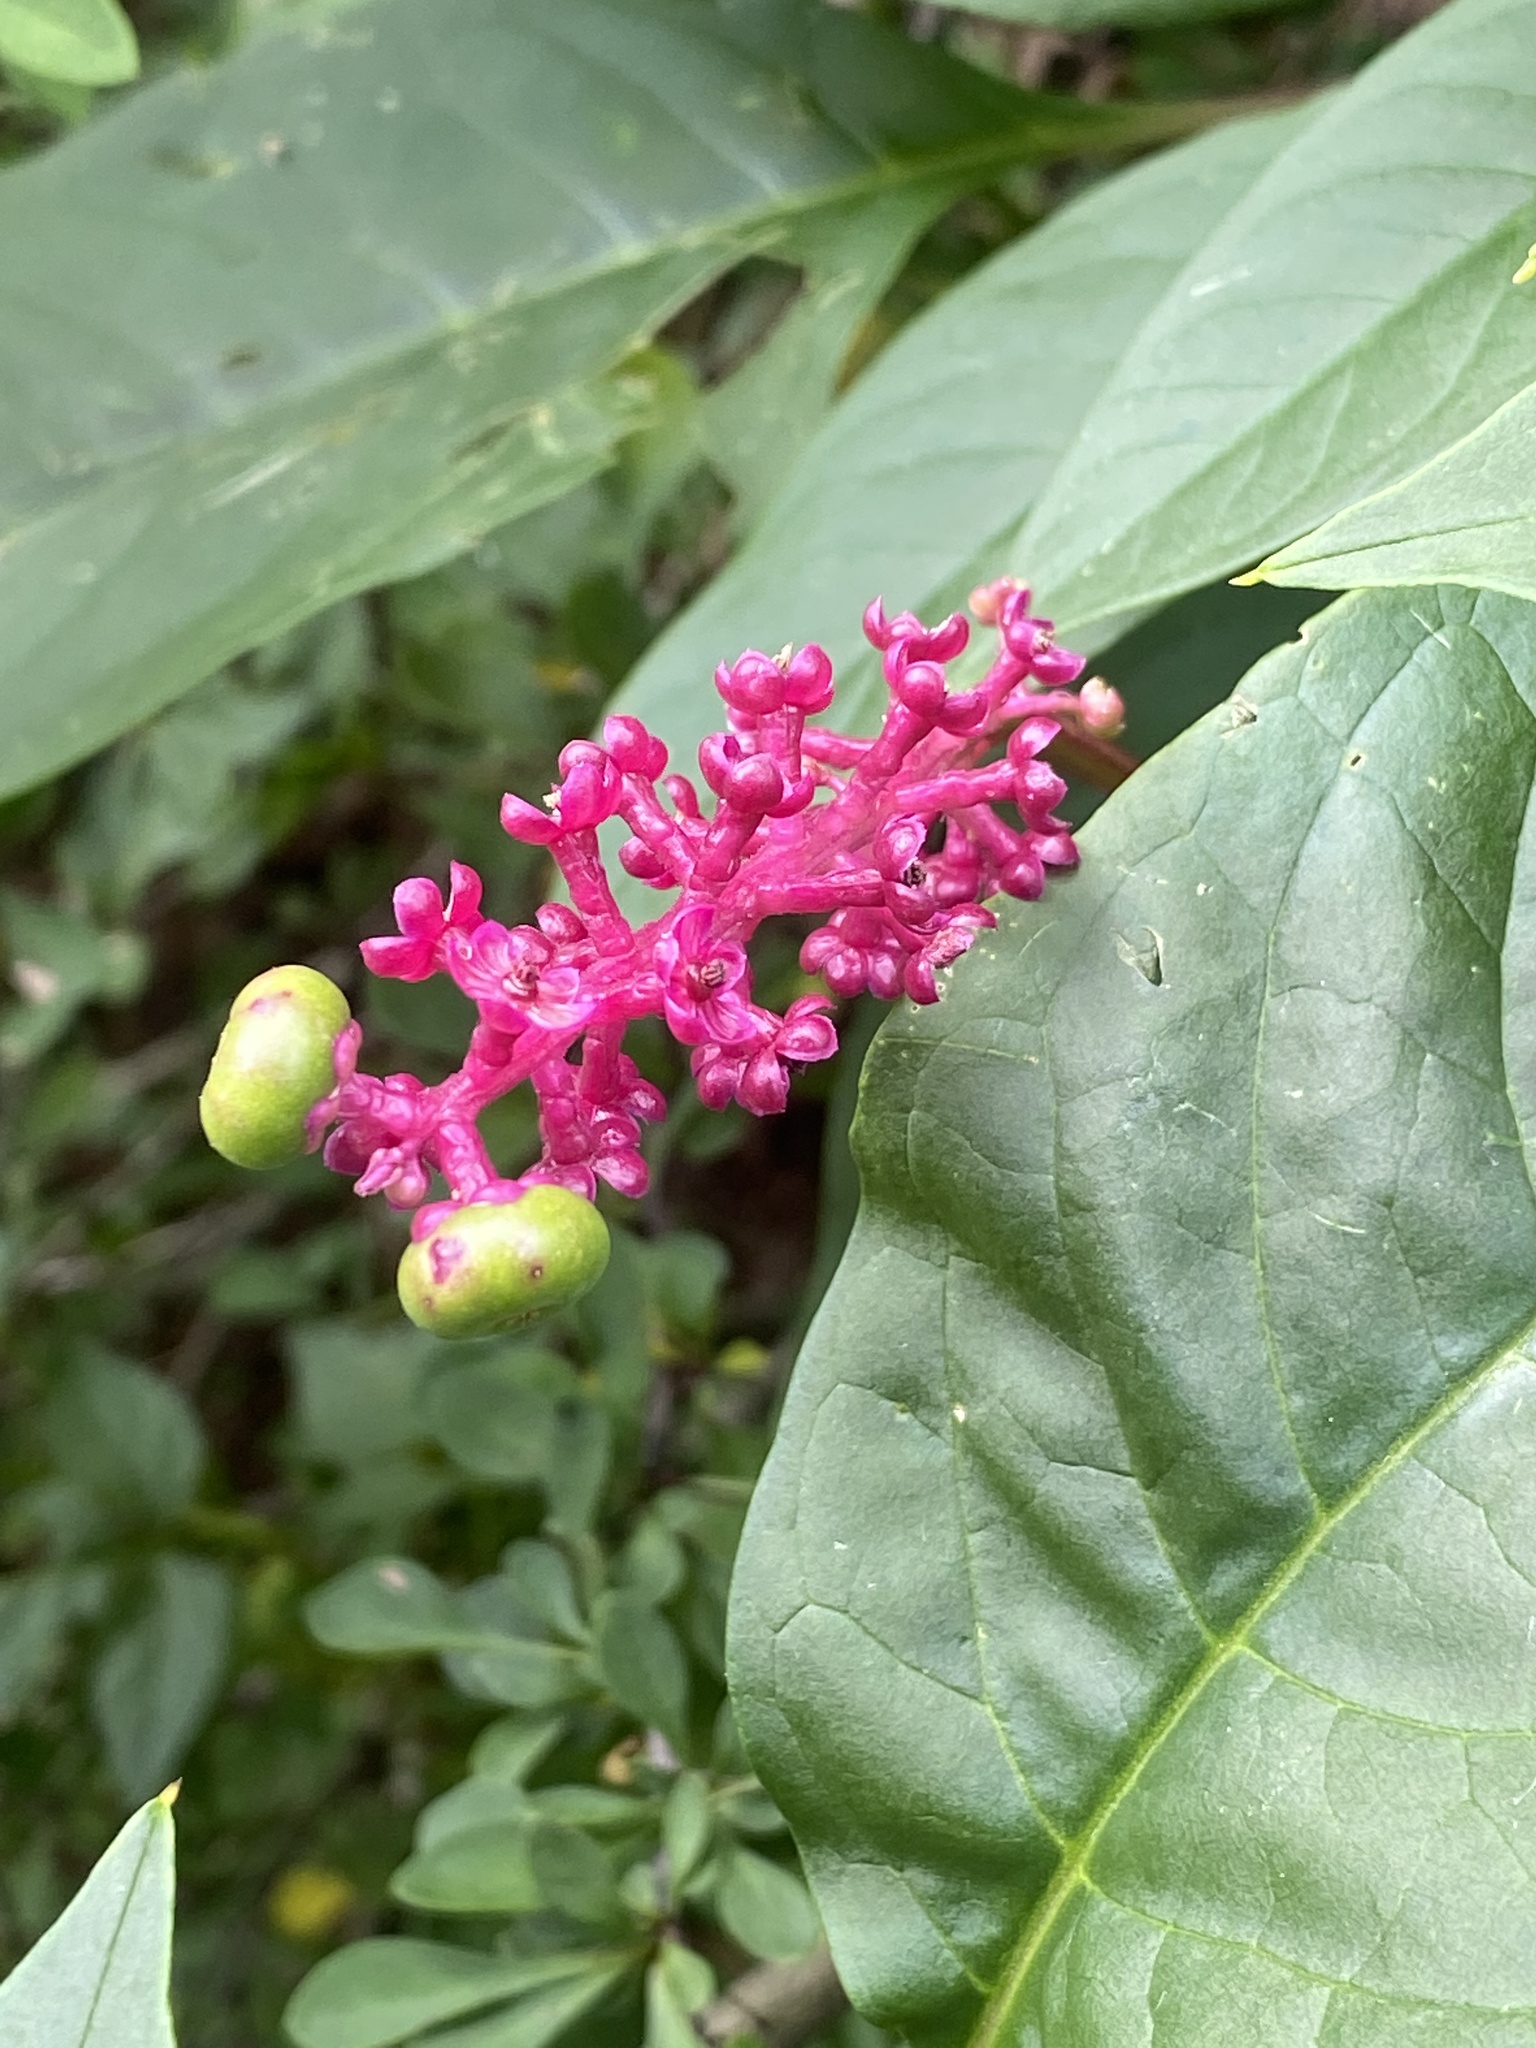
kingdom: Plantae
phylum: Tracheophyta
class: Magnoliopsida
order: Caryophyllales
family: Phytolaccaceae
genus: Phytolacca
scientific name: Phytolacca americana
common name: American pokeweed
